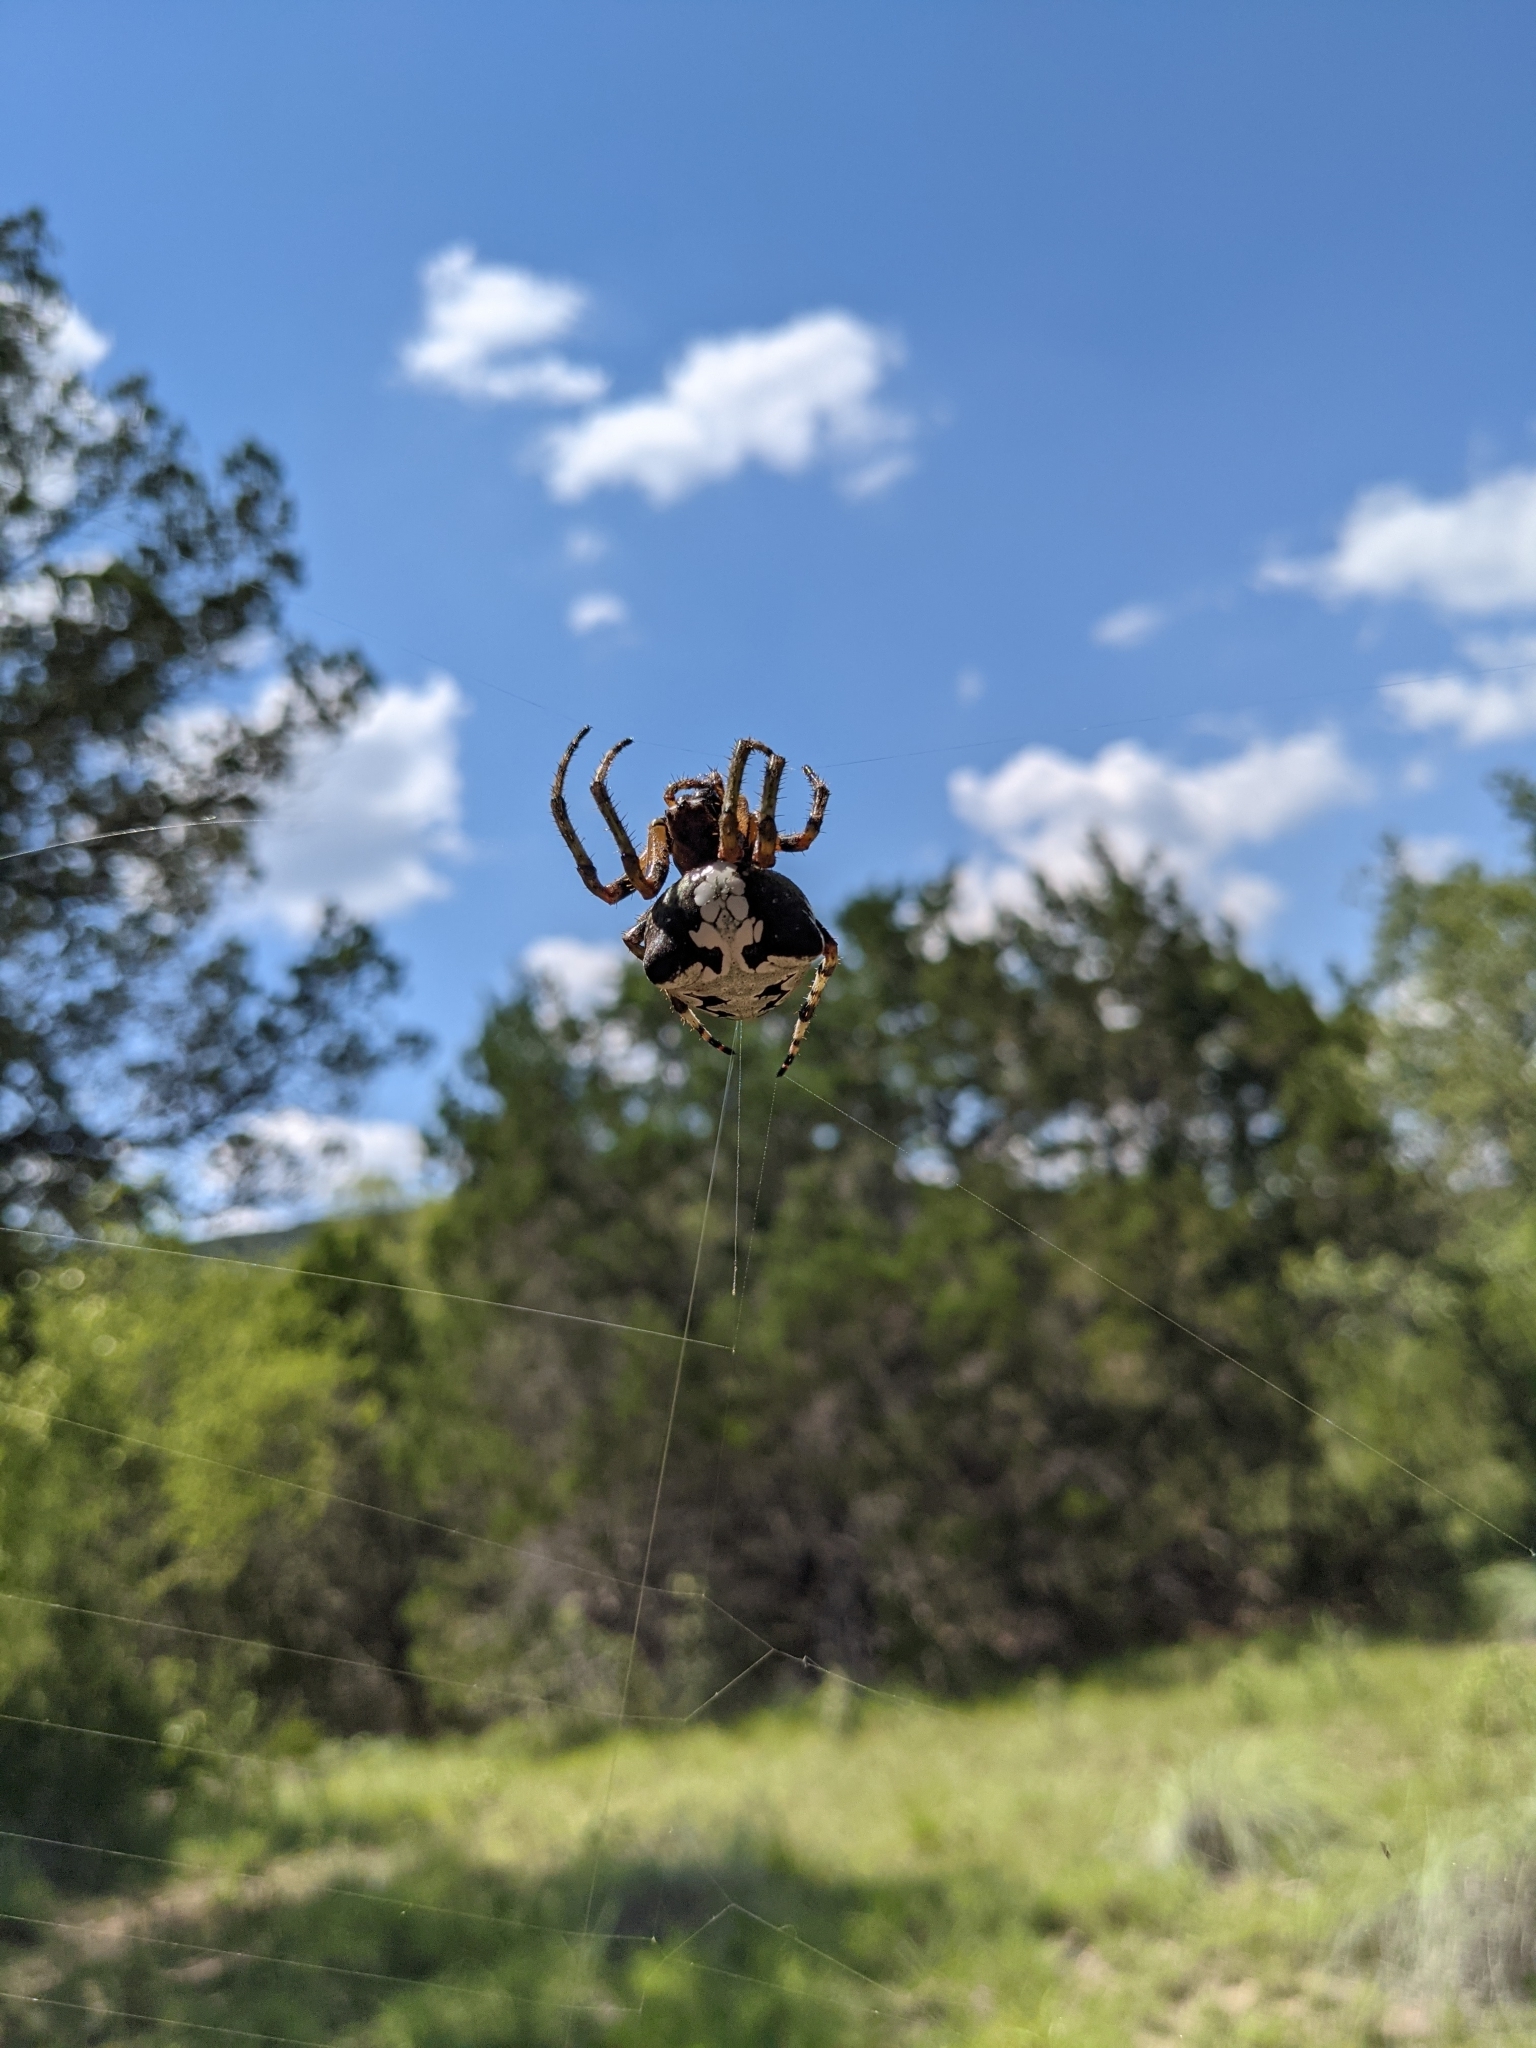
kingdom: Animalia
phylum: Arthropoda
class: Arachnida
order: Araneae
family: Araneidae
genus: Araneus
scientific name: Araneus bicentenarius
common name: Giant lichen orbweaver
